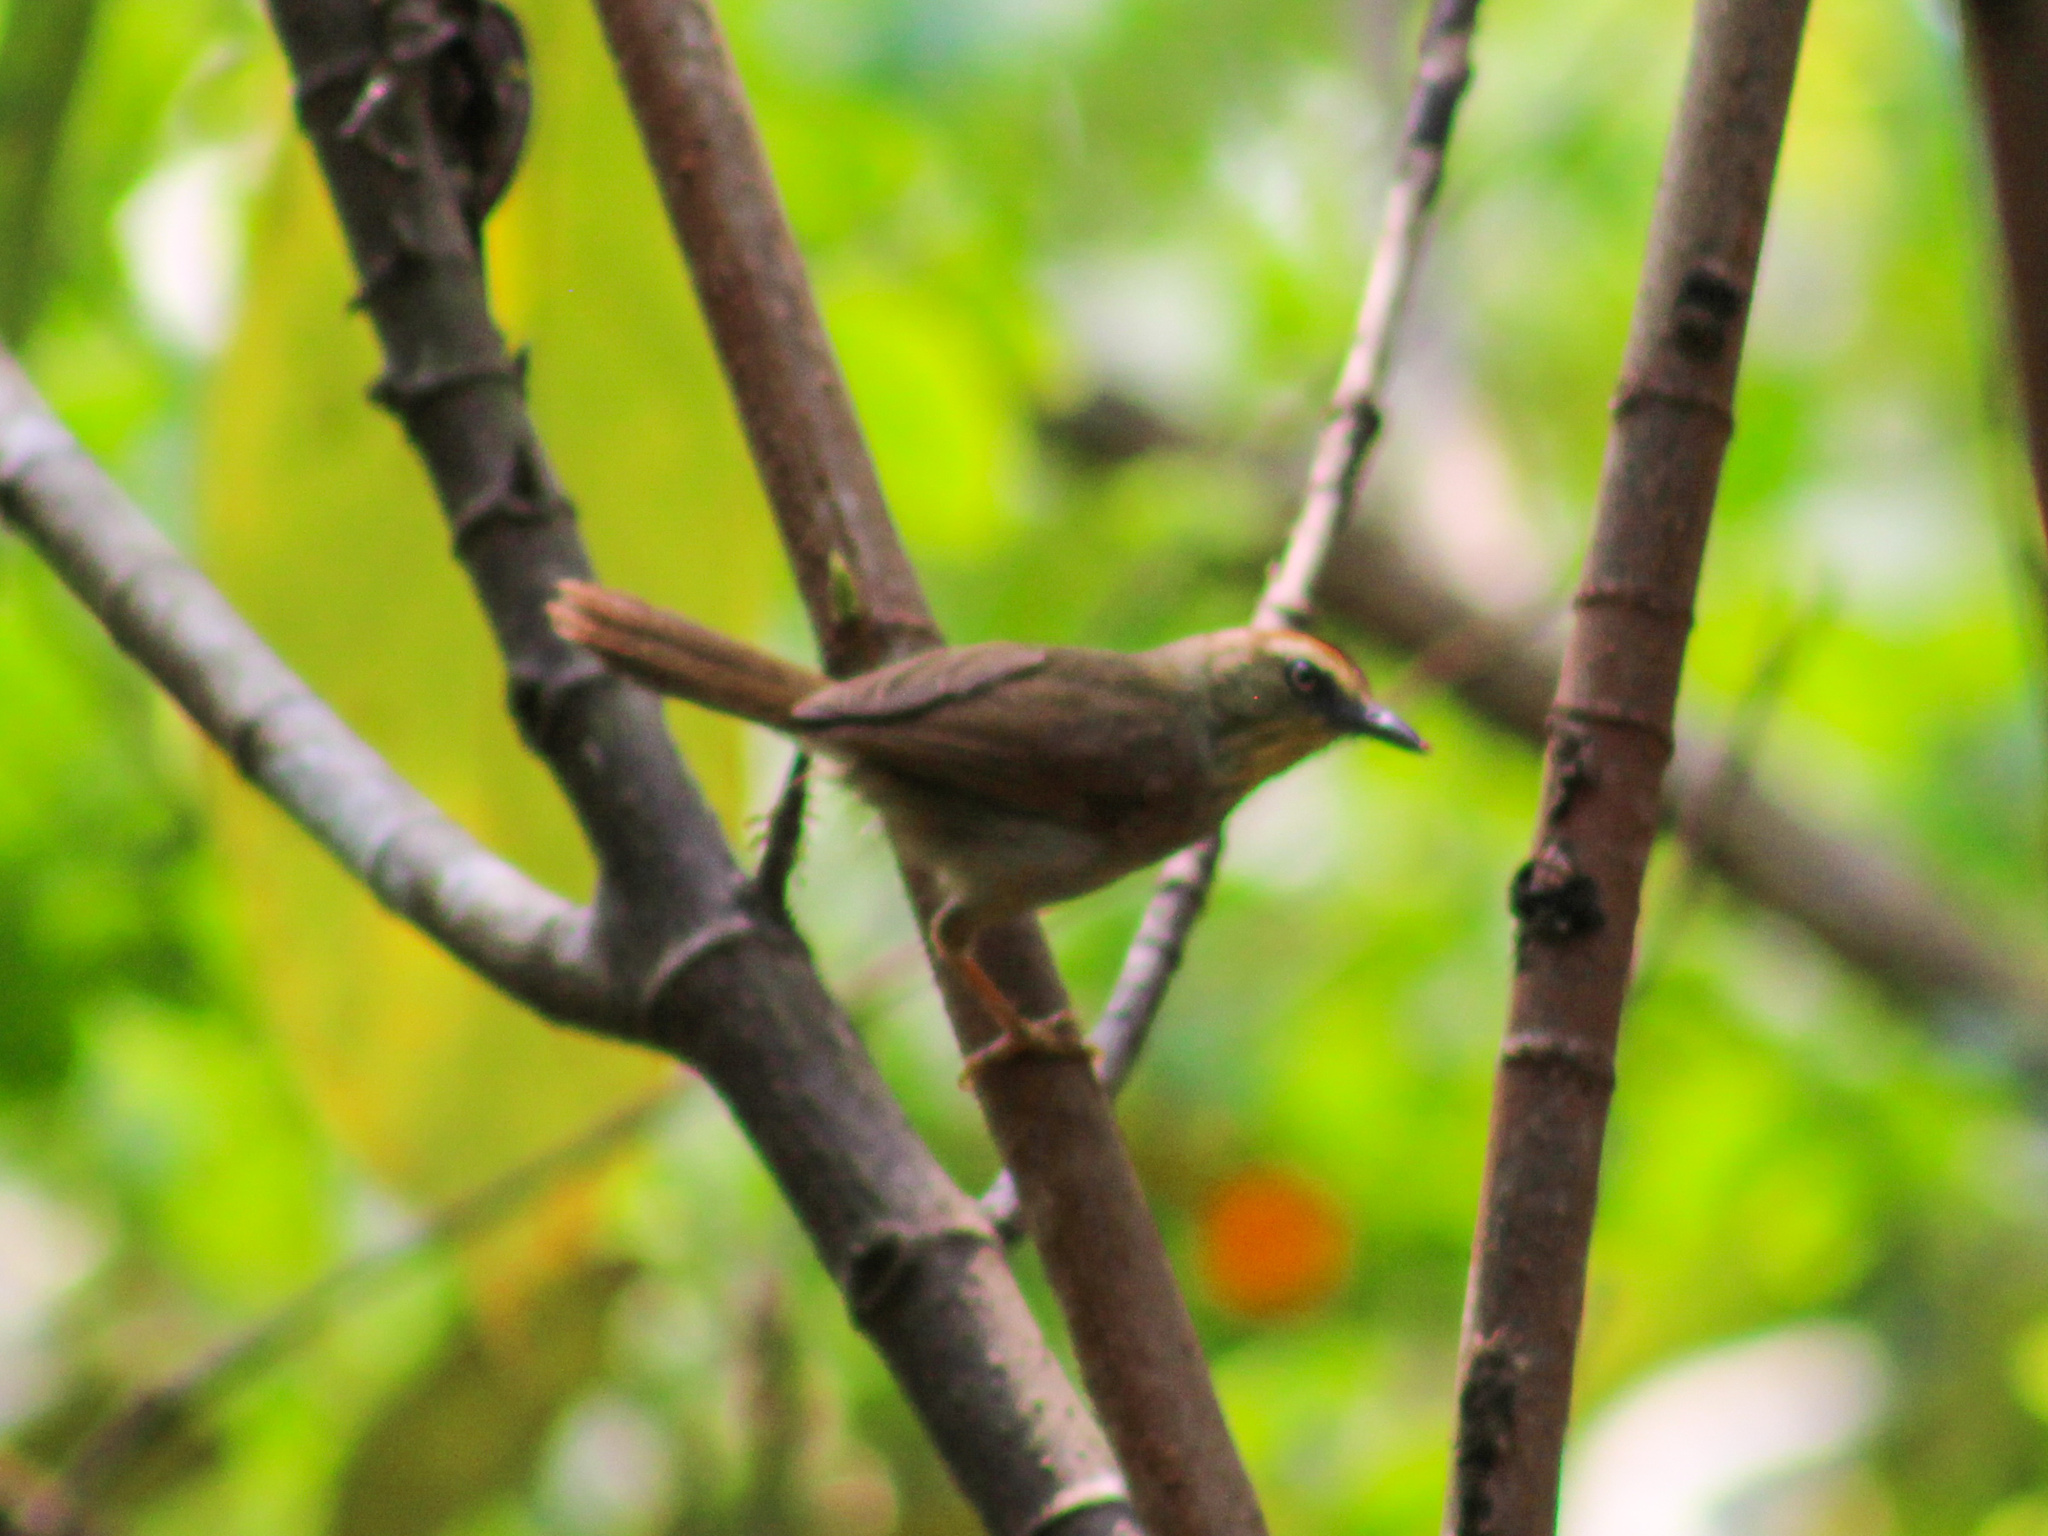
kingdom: Animalia
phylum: Chordata
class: Aves
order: Passeriformes
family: Timaliidae
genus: Macronus
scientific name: Macronus gularis
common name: Striped tit-babbler
